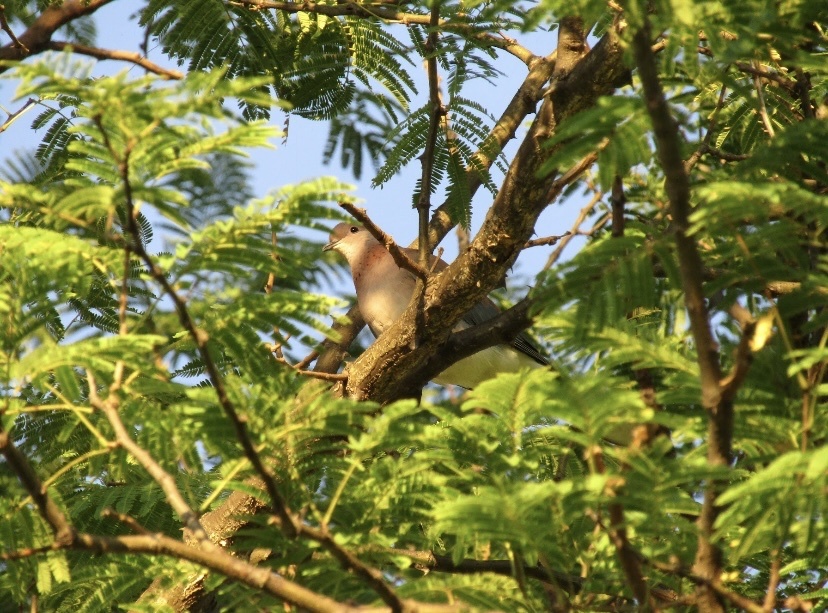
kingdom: Animalia
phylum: Chordata
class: Aves
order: Columbiformes
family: Columbidae
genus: Spilopelia
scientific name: Spilopelia senegalensis
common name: Laughing dove
